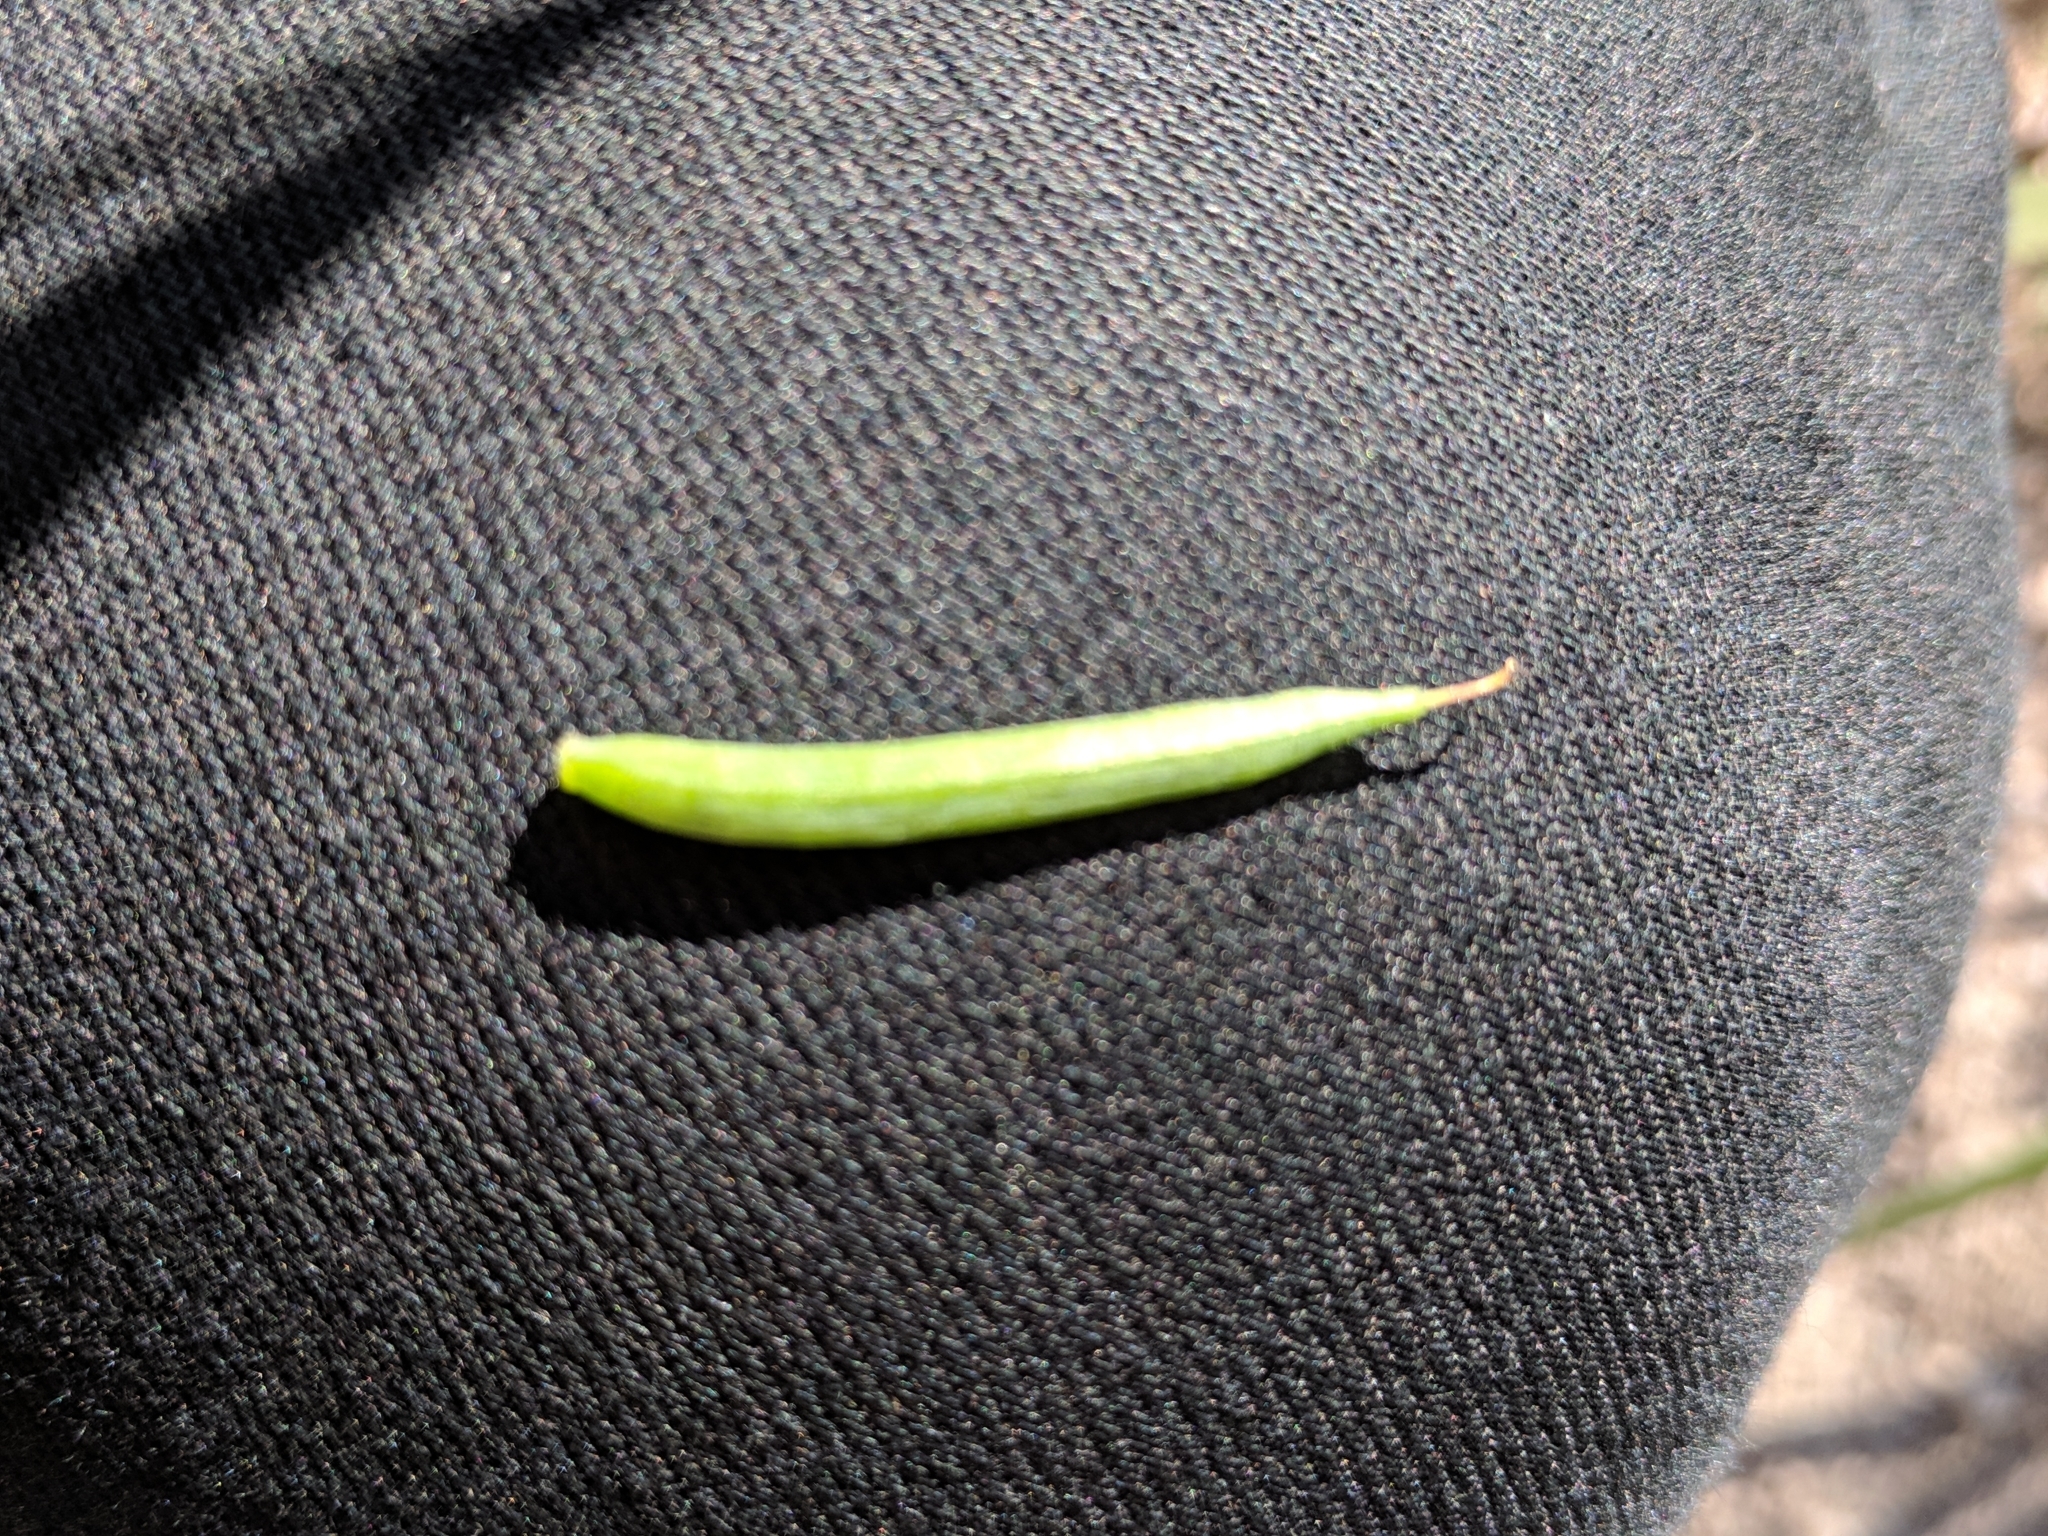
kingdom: Plantae
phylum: Tracheophyta
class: Magnoliopsida
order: Ranunculales
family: Papaveraceae
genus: Corydalis
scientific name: Corydalis aurea
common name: Golden corydalis
